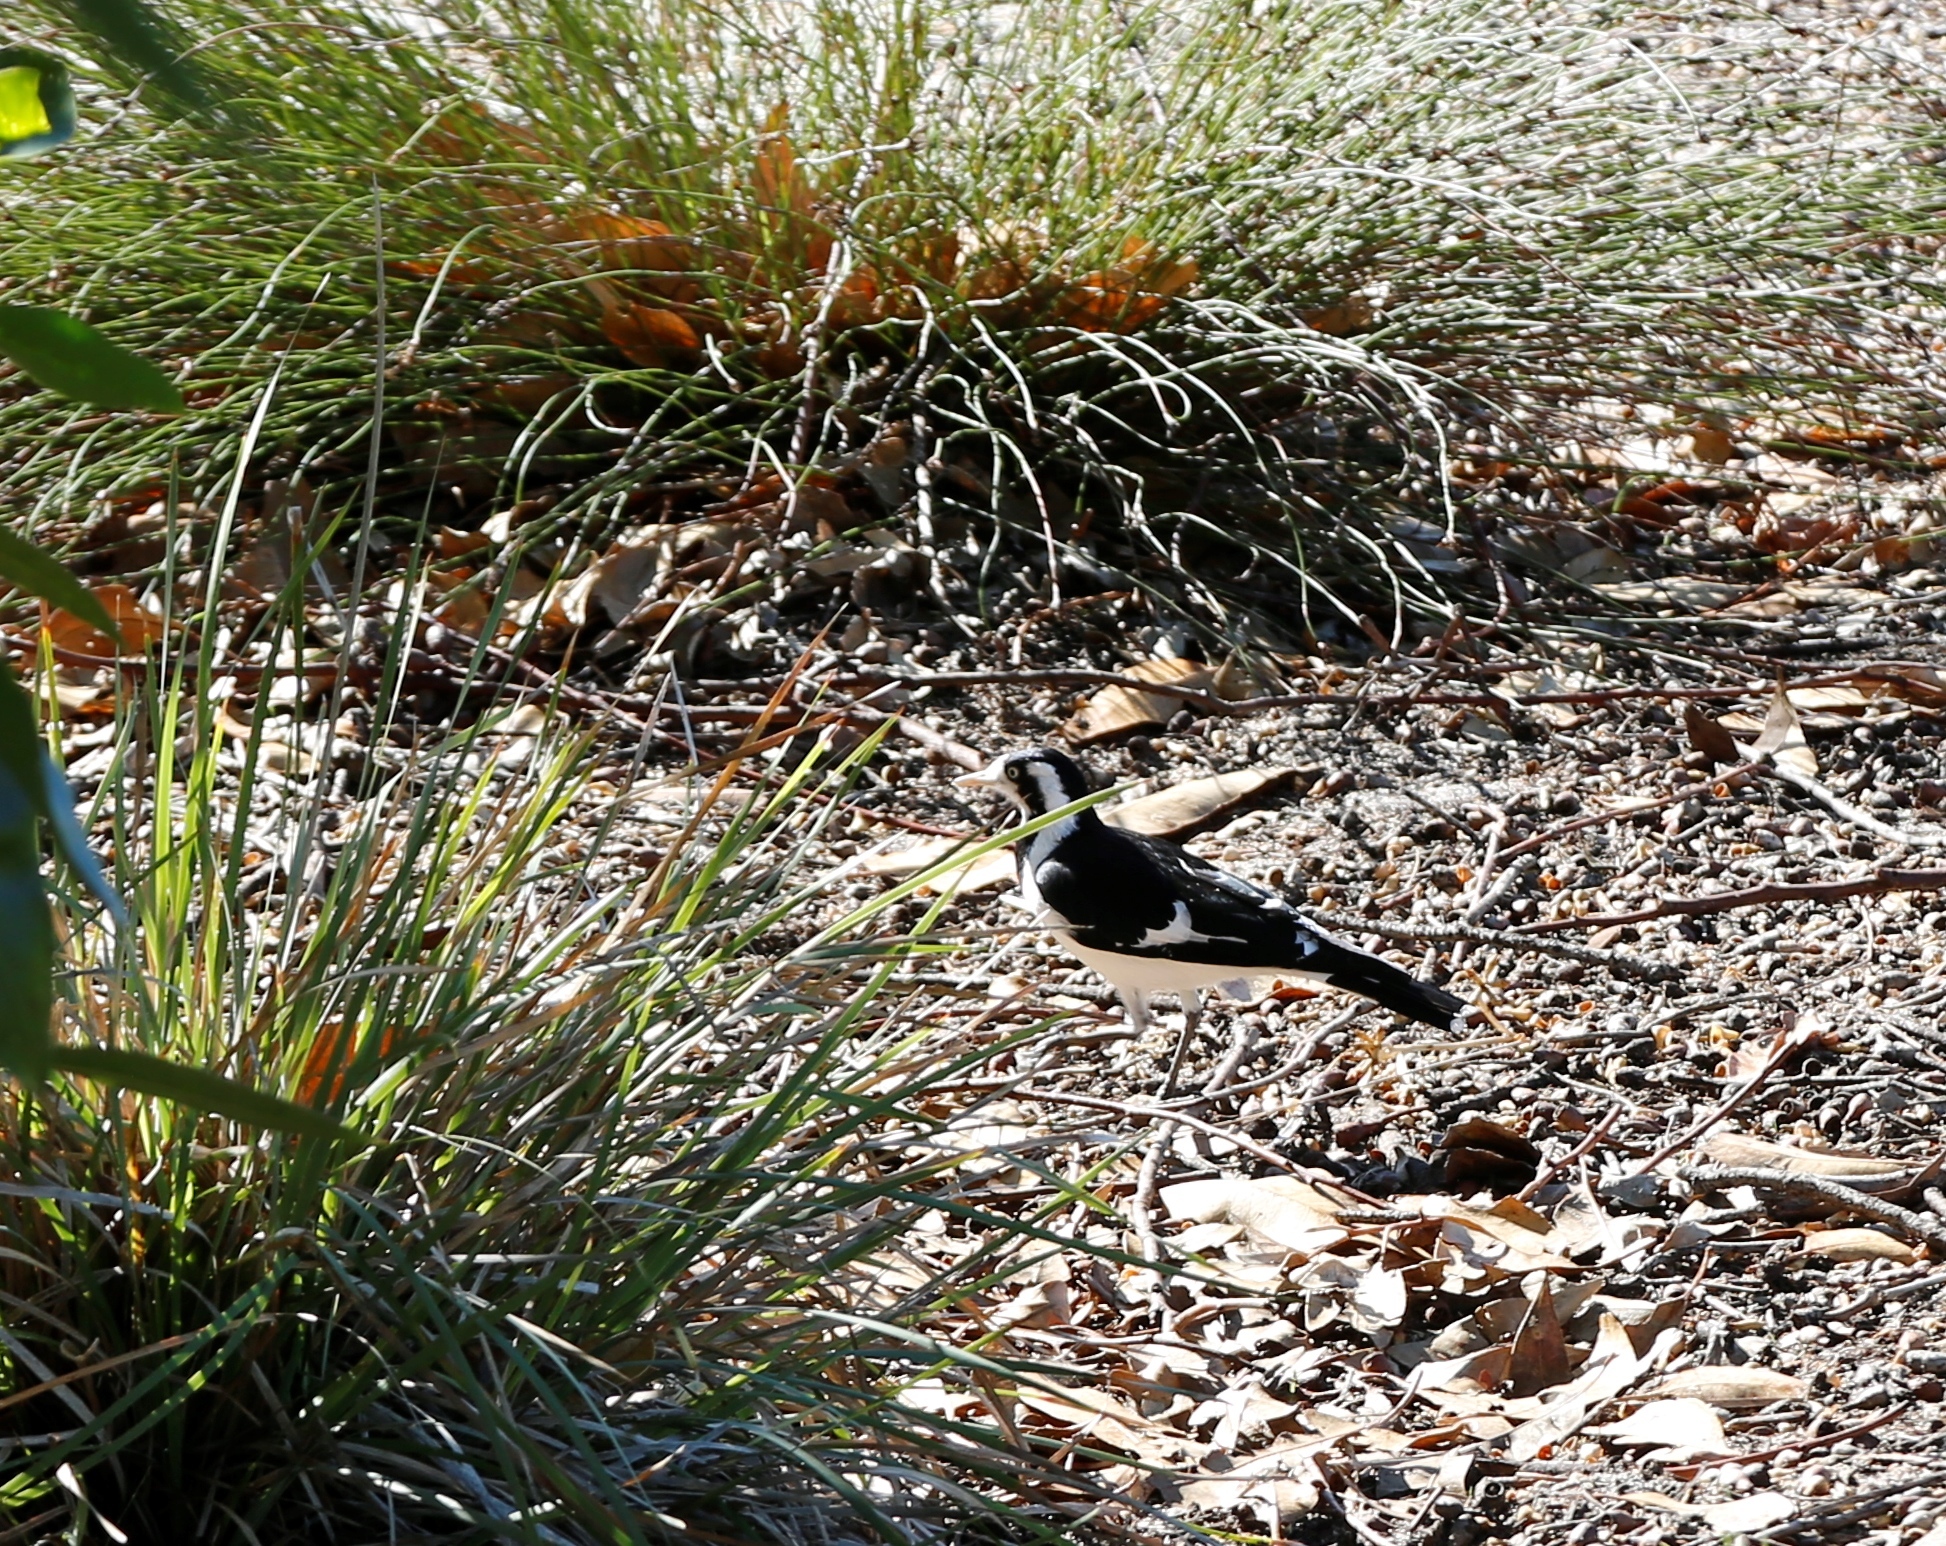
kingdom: Animalia
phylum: Chordata
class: Aves
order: Passeriformes
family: Monarchidae
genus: Grallina
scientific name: Grallina cyanoleuca
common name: Magpie-lark
